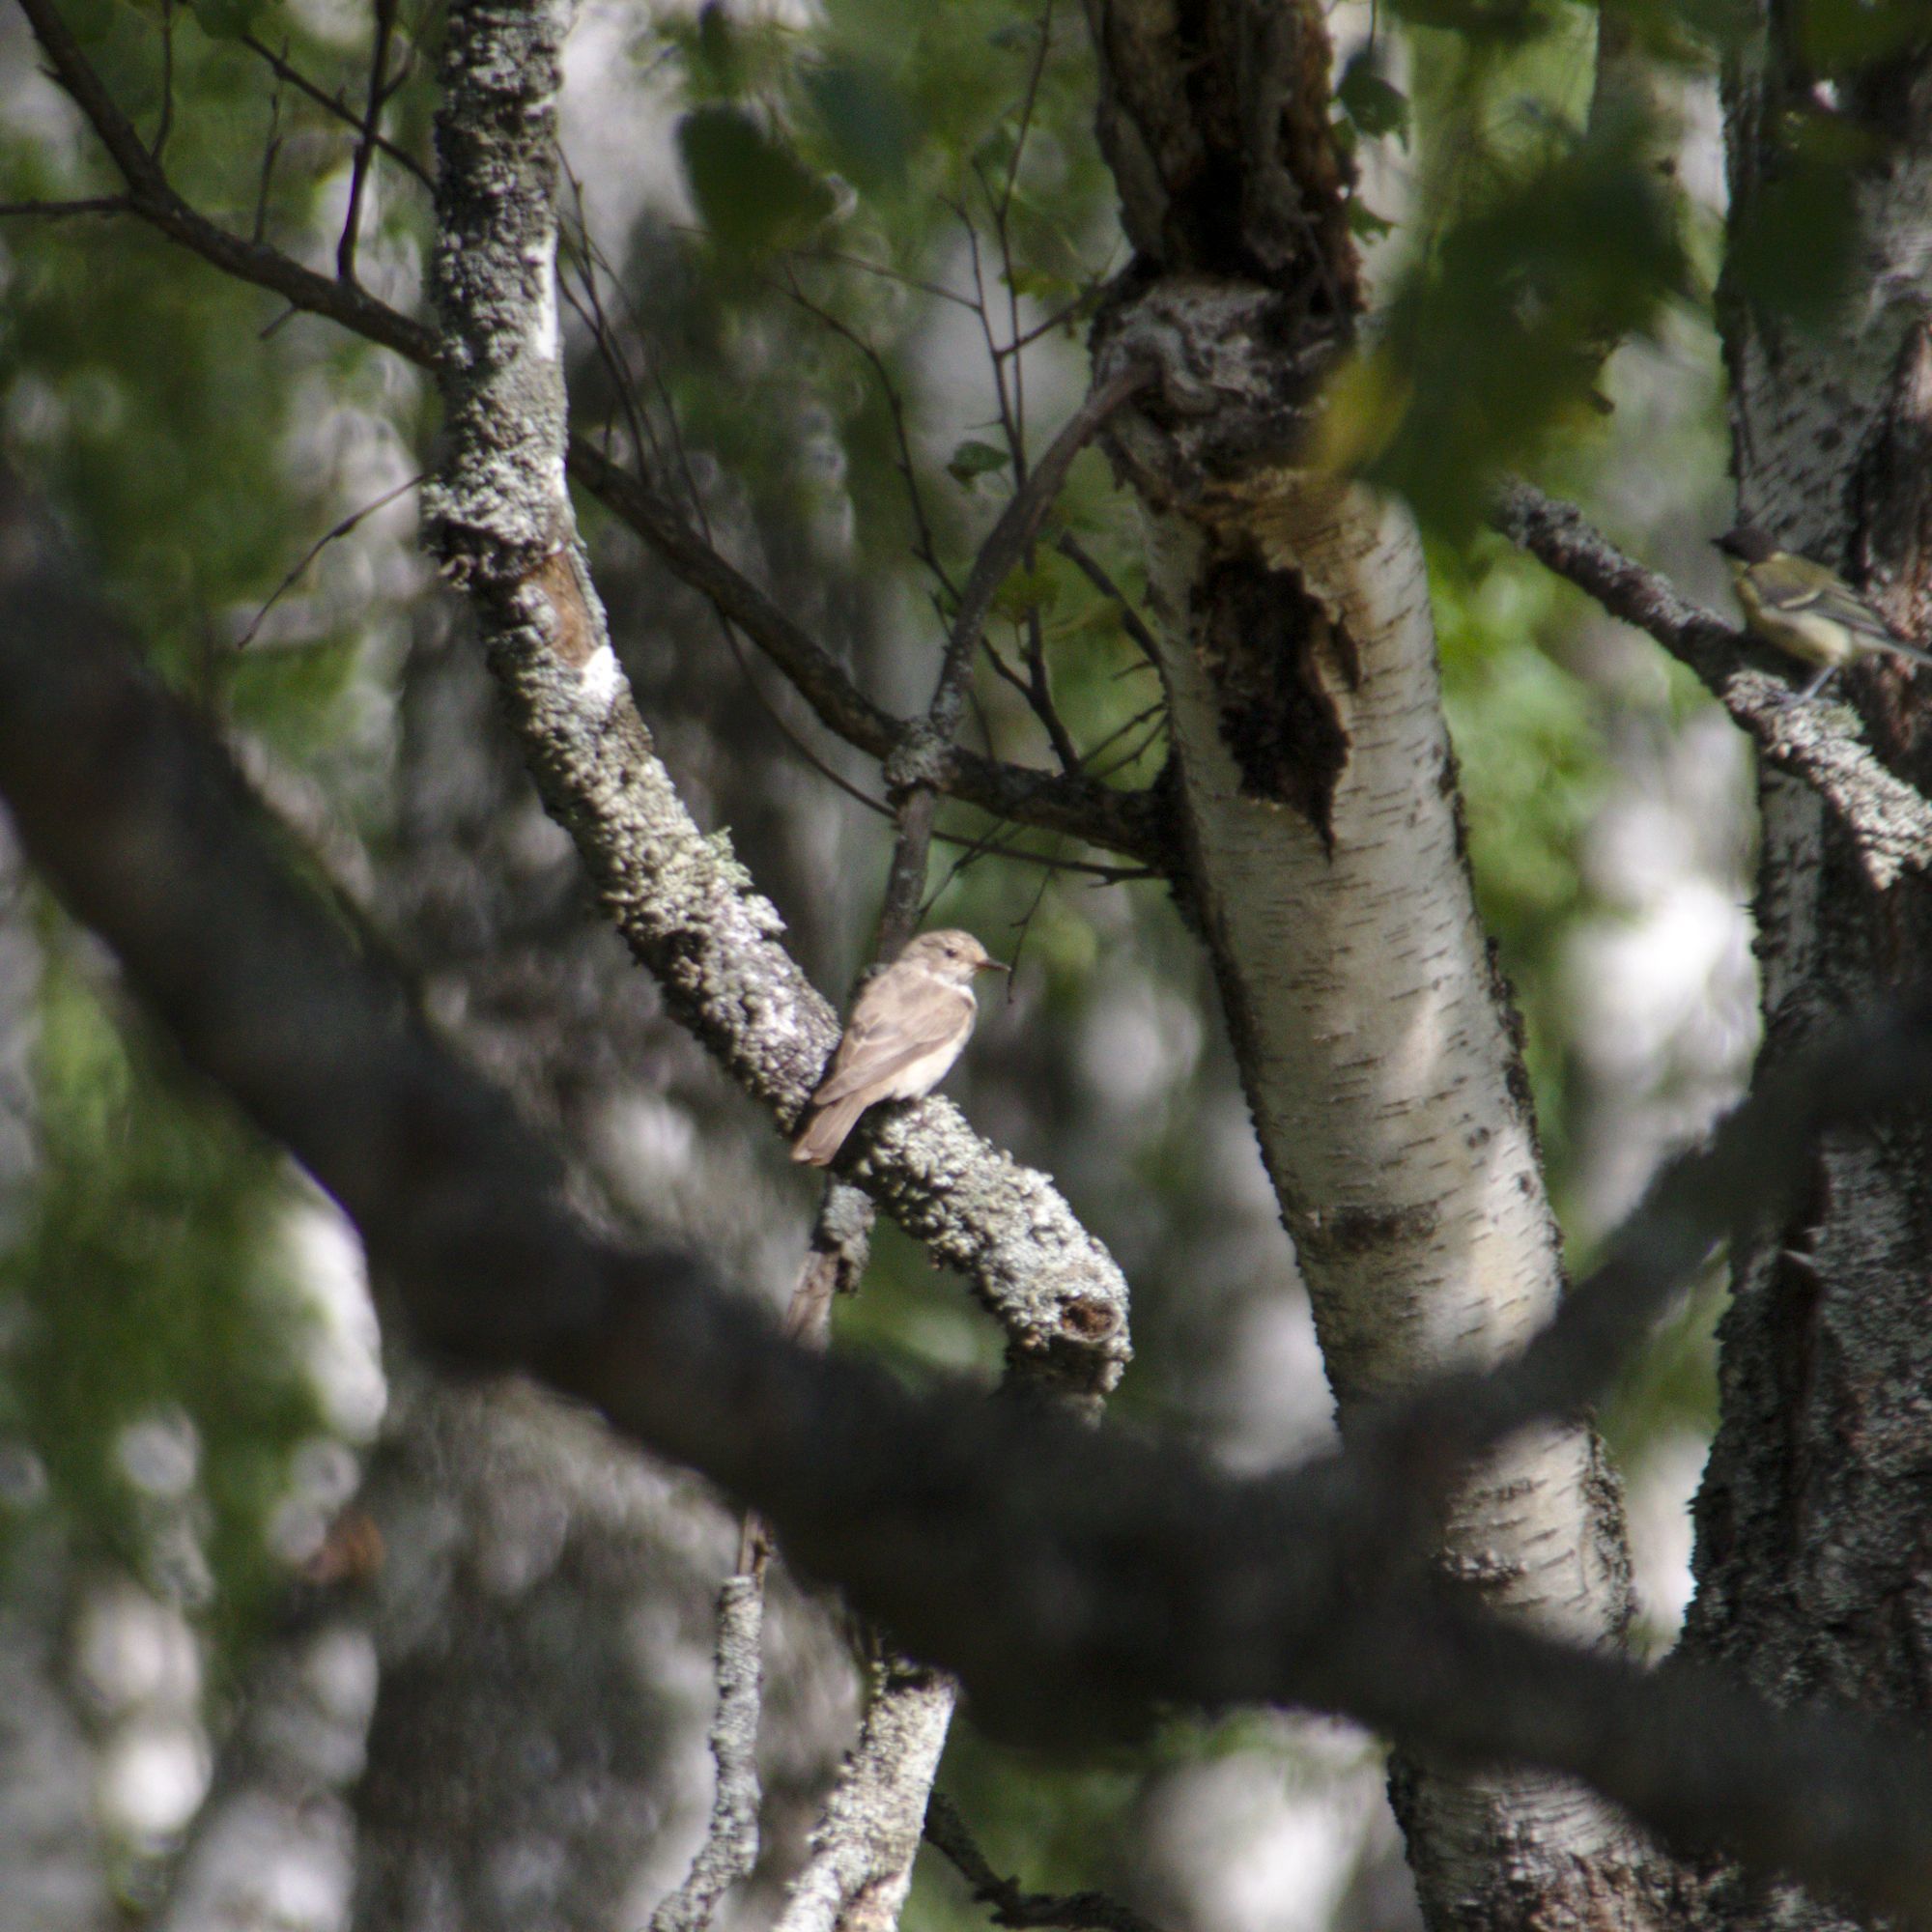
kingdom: Animalia
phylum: Chordata
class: Aves
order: Passeriformes
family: Muscicapidae
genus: Muscicapa
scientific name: Muscicapa striata
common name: Spotted flycatcher
